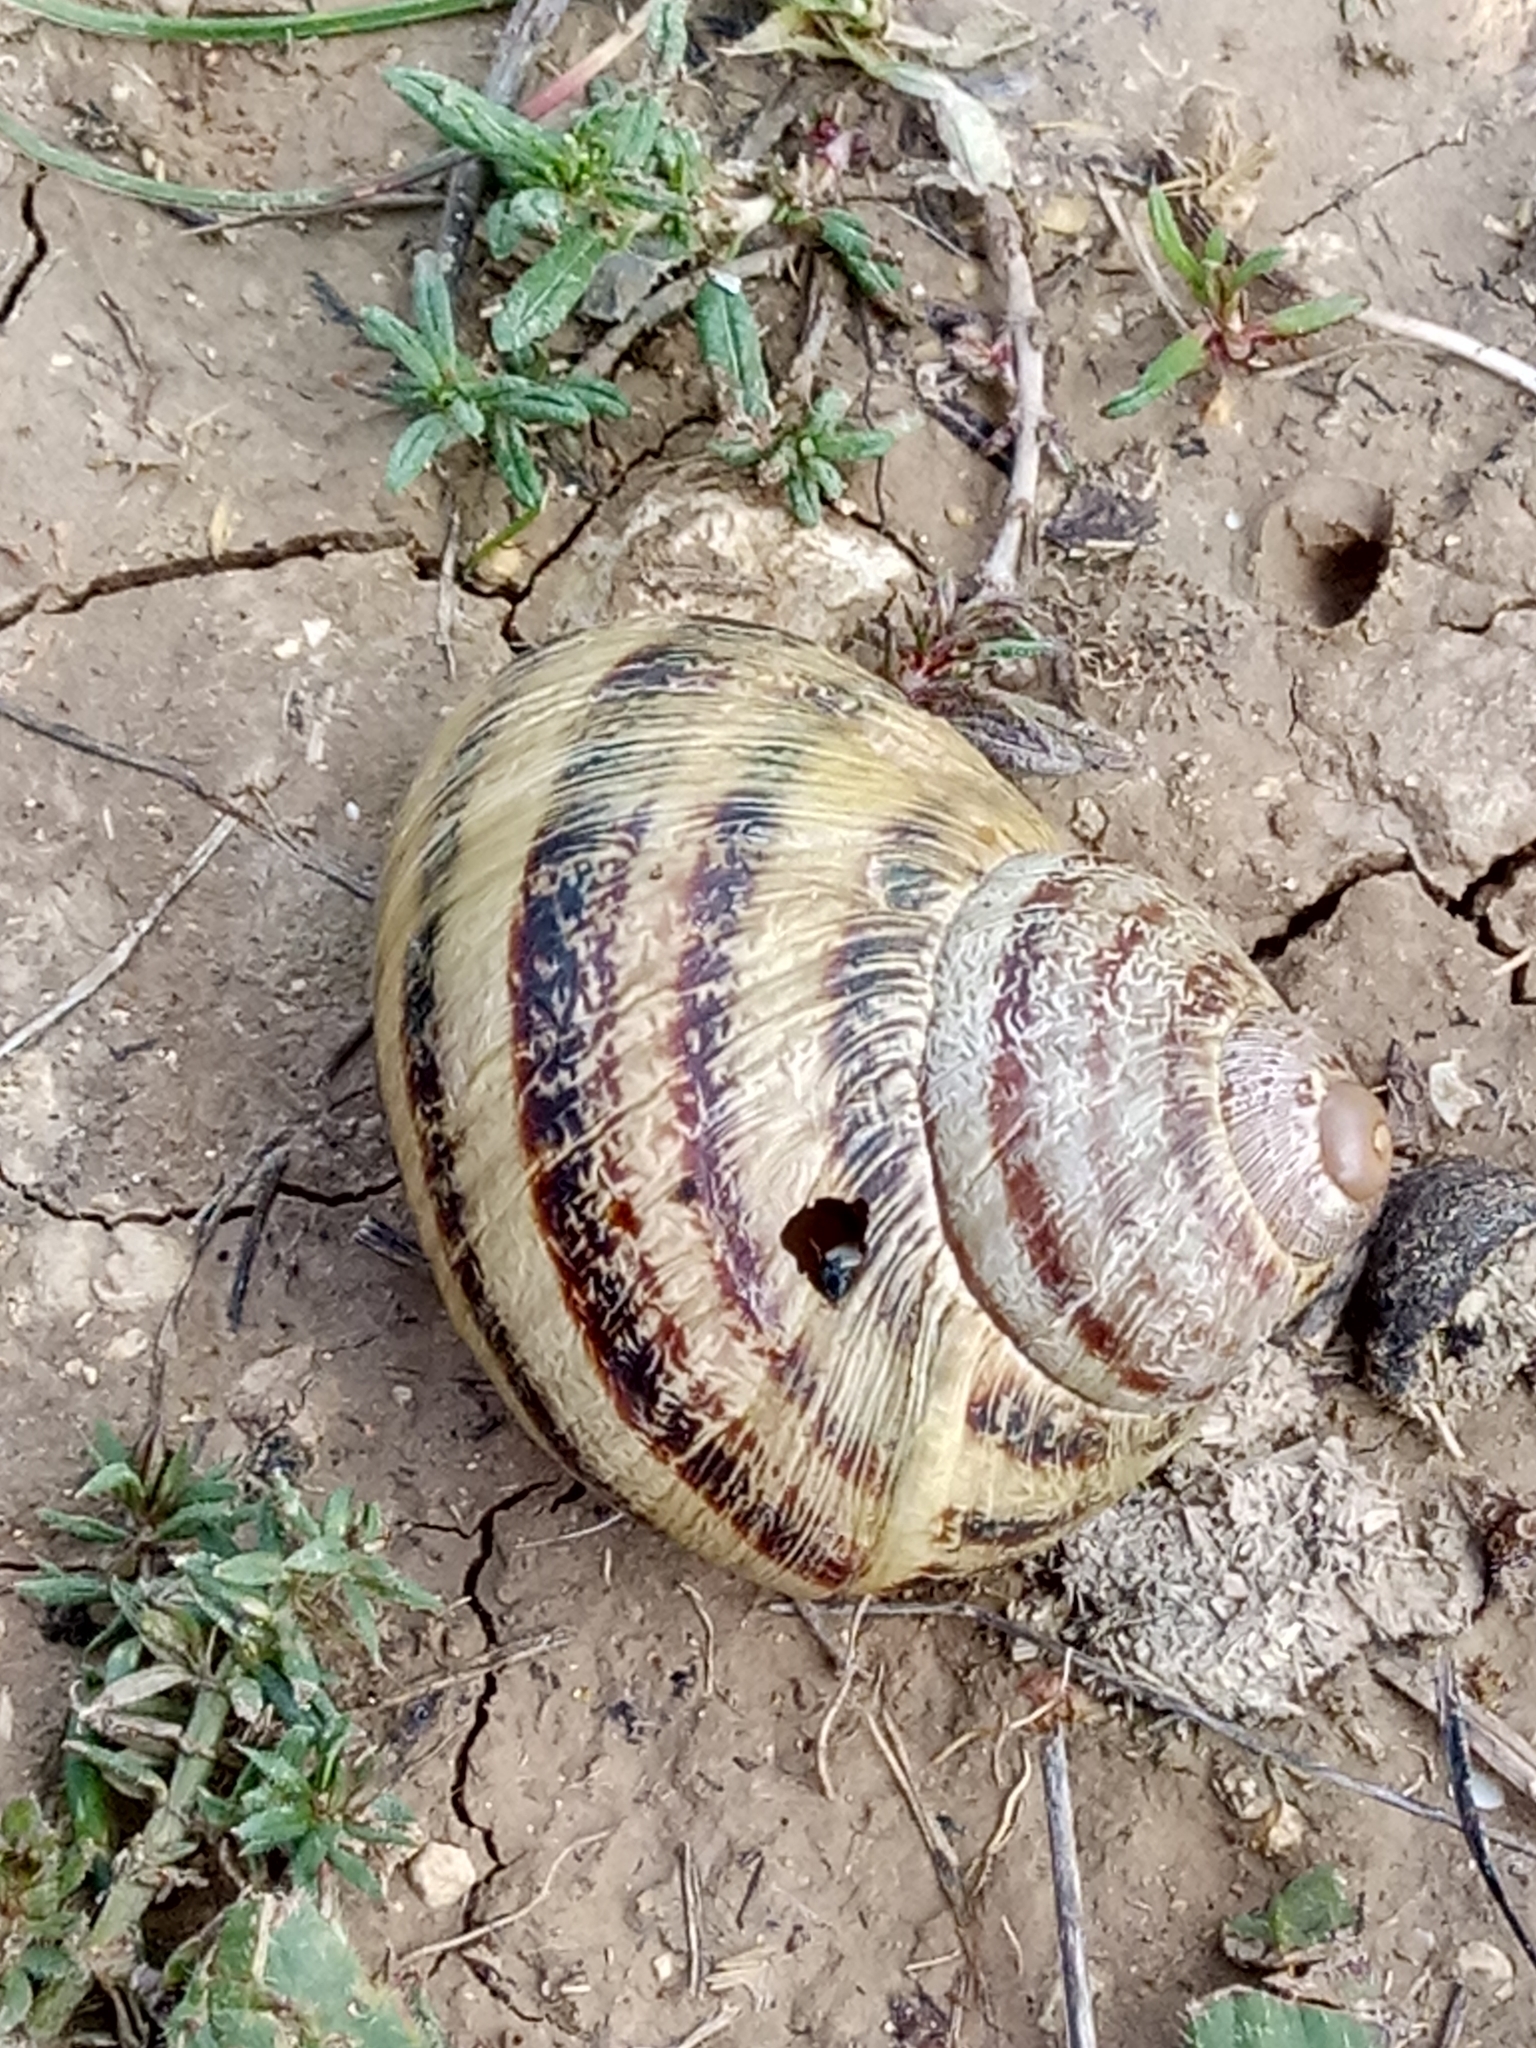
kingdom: Animalia
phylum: Mollusca
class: Gastropoda
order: Stylommatophora
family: Helicidae
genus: Cornu
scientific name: Cornu aspersum
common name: Brown garden snail
